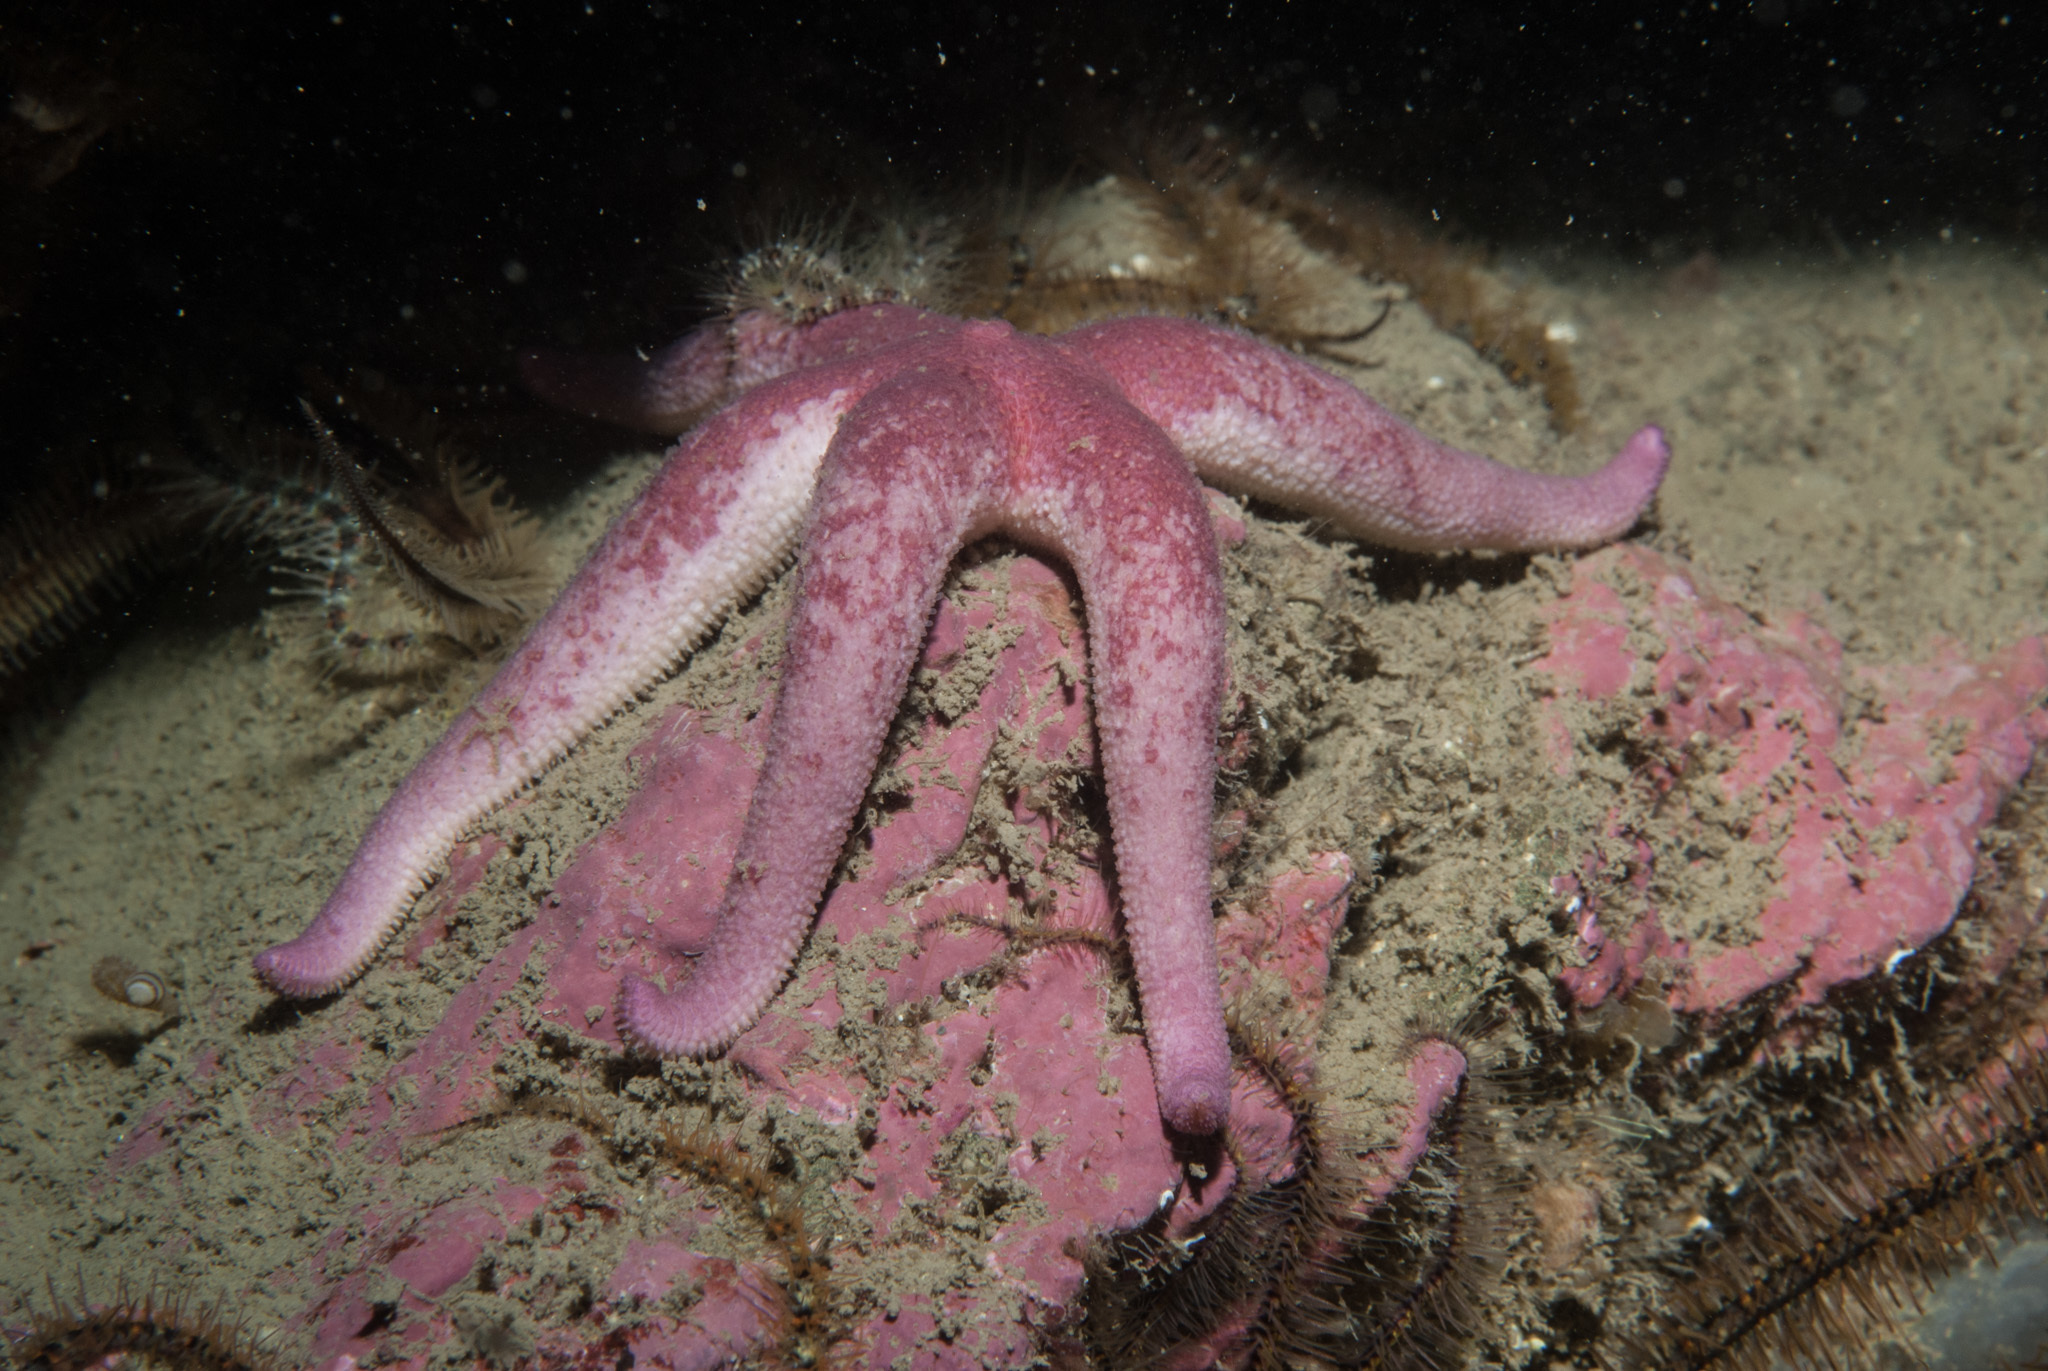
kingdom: Animalia
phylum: Echinodermata
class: Asteroidea
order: Valvatida
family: Solasteridae
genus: Solaster
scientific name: Solaster endeca
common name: Purple sun star
